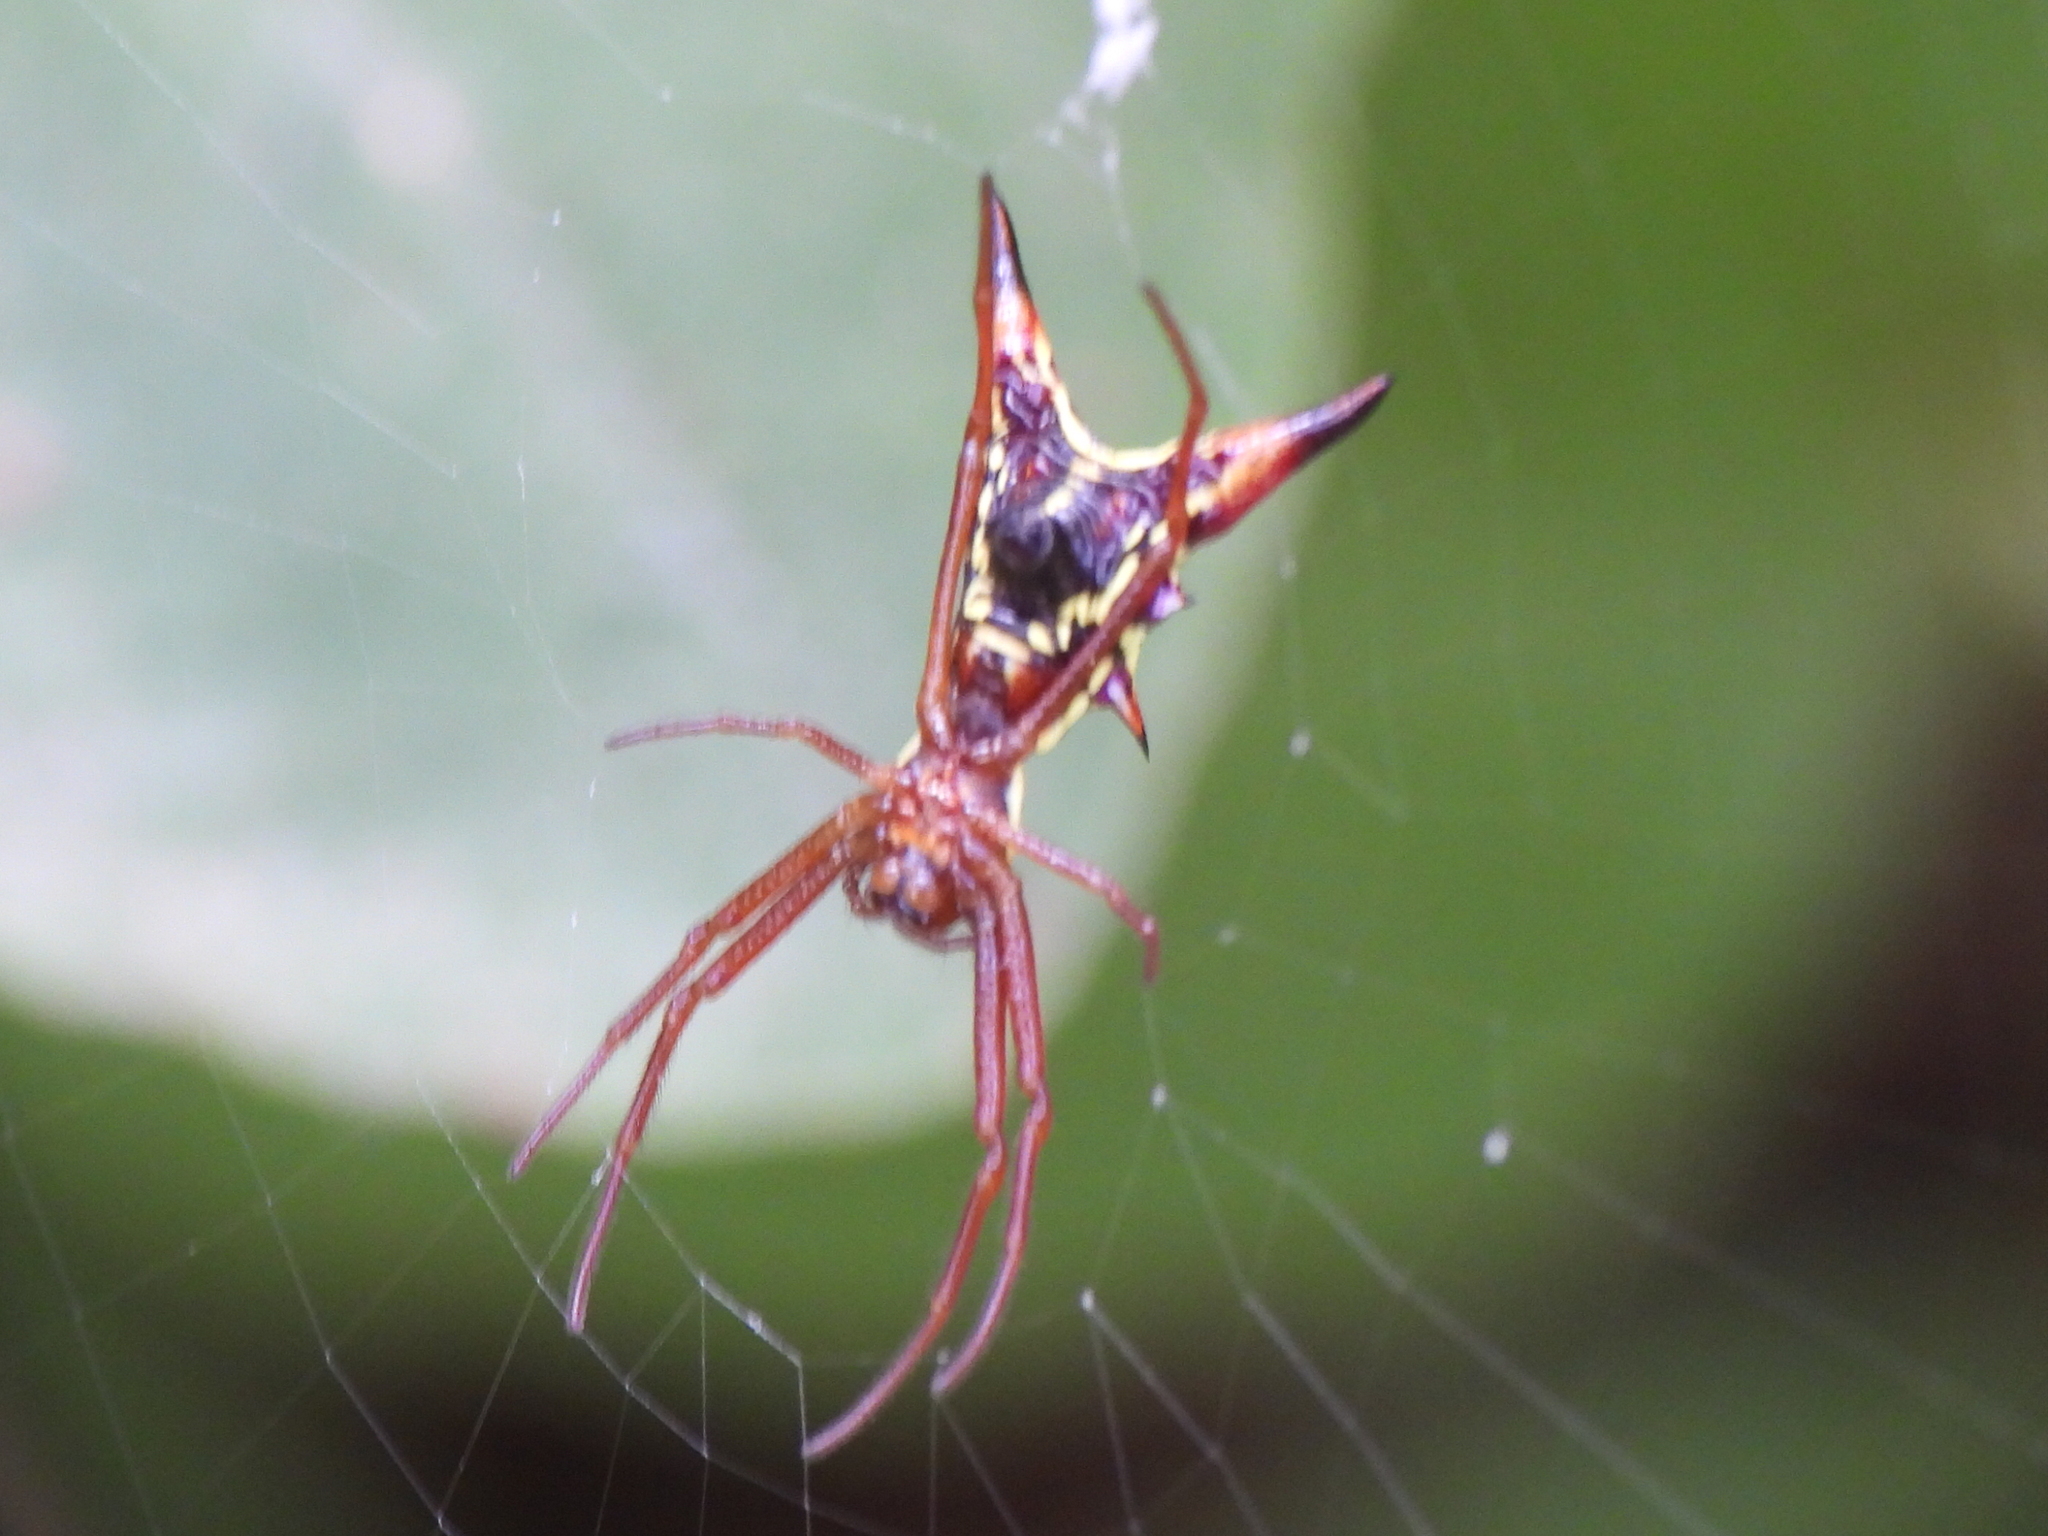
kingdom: Animalia
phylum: Arthropoda
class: Arachnida
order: Araneae
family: Araneidae
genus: Micrathena
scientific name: Micrathena sagittata
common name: Orb weavers
